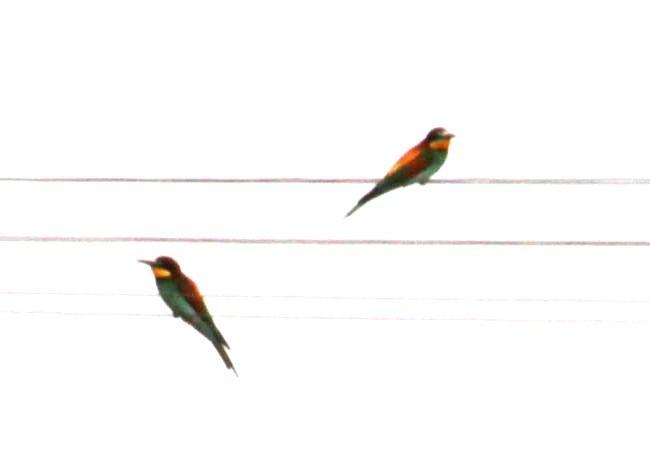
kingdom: Animalia
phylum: Chordata
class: Aves
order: Coraciiformes
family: Meropidae
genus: Merops
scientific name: Merops apiaster
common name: European bee-eater
